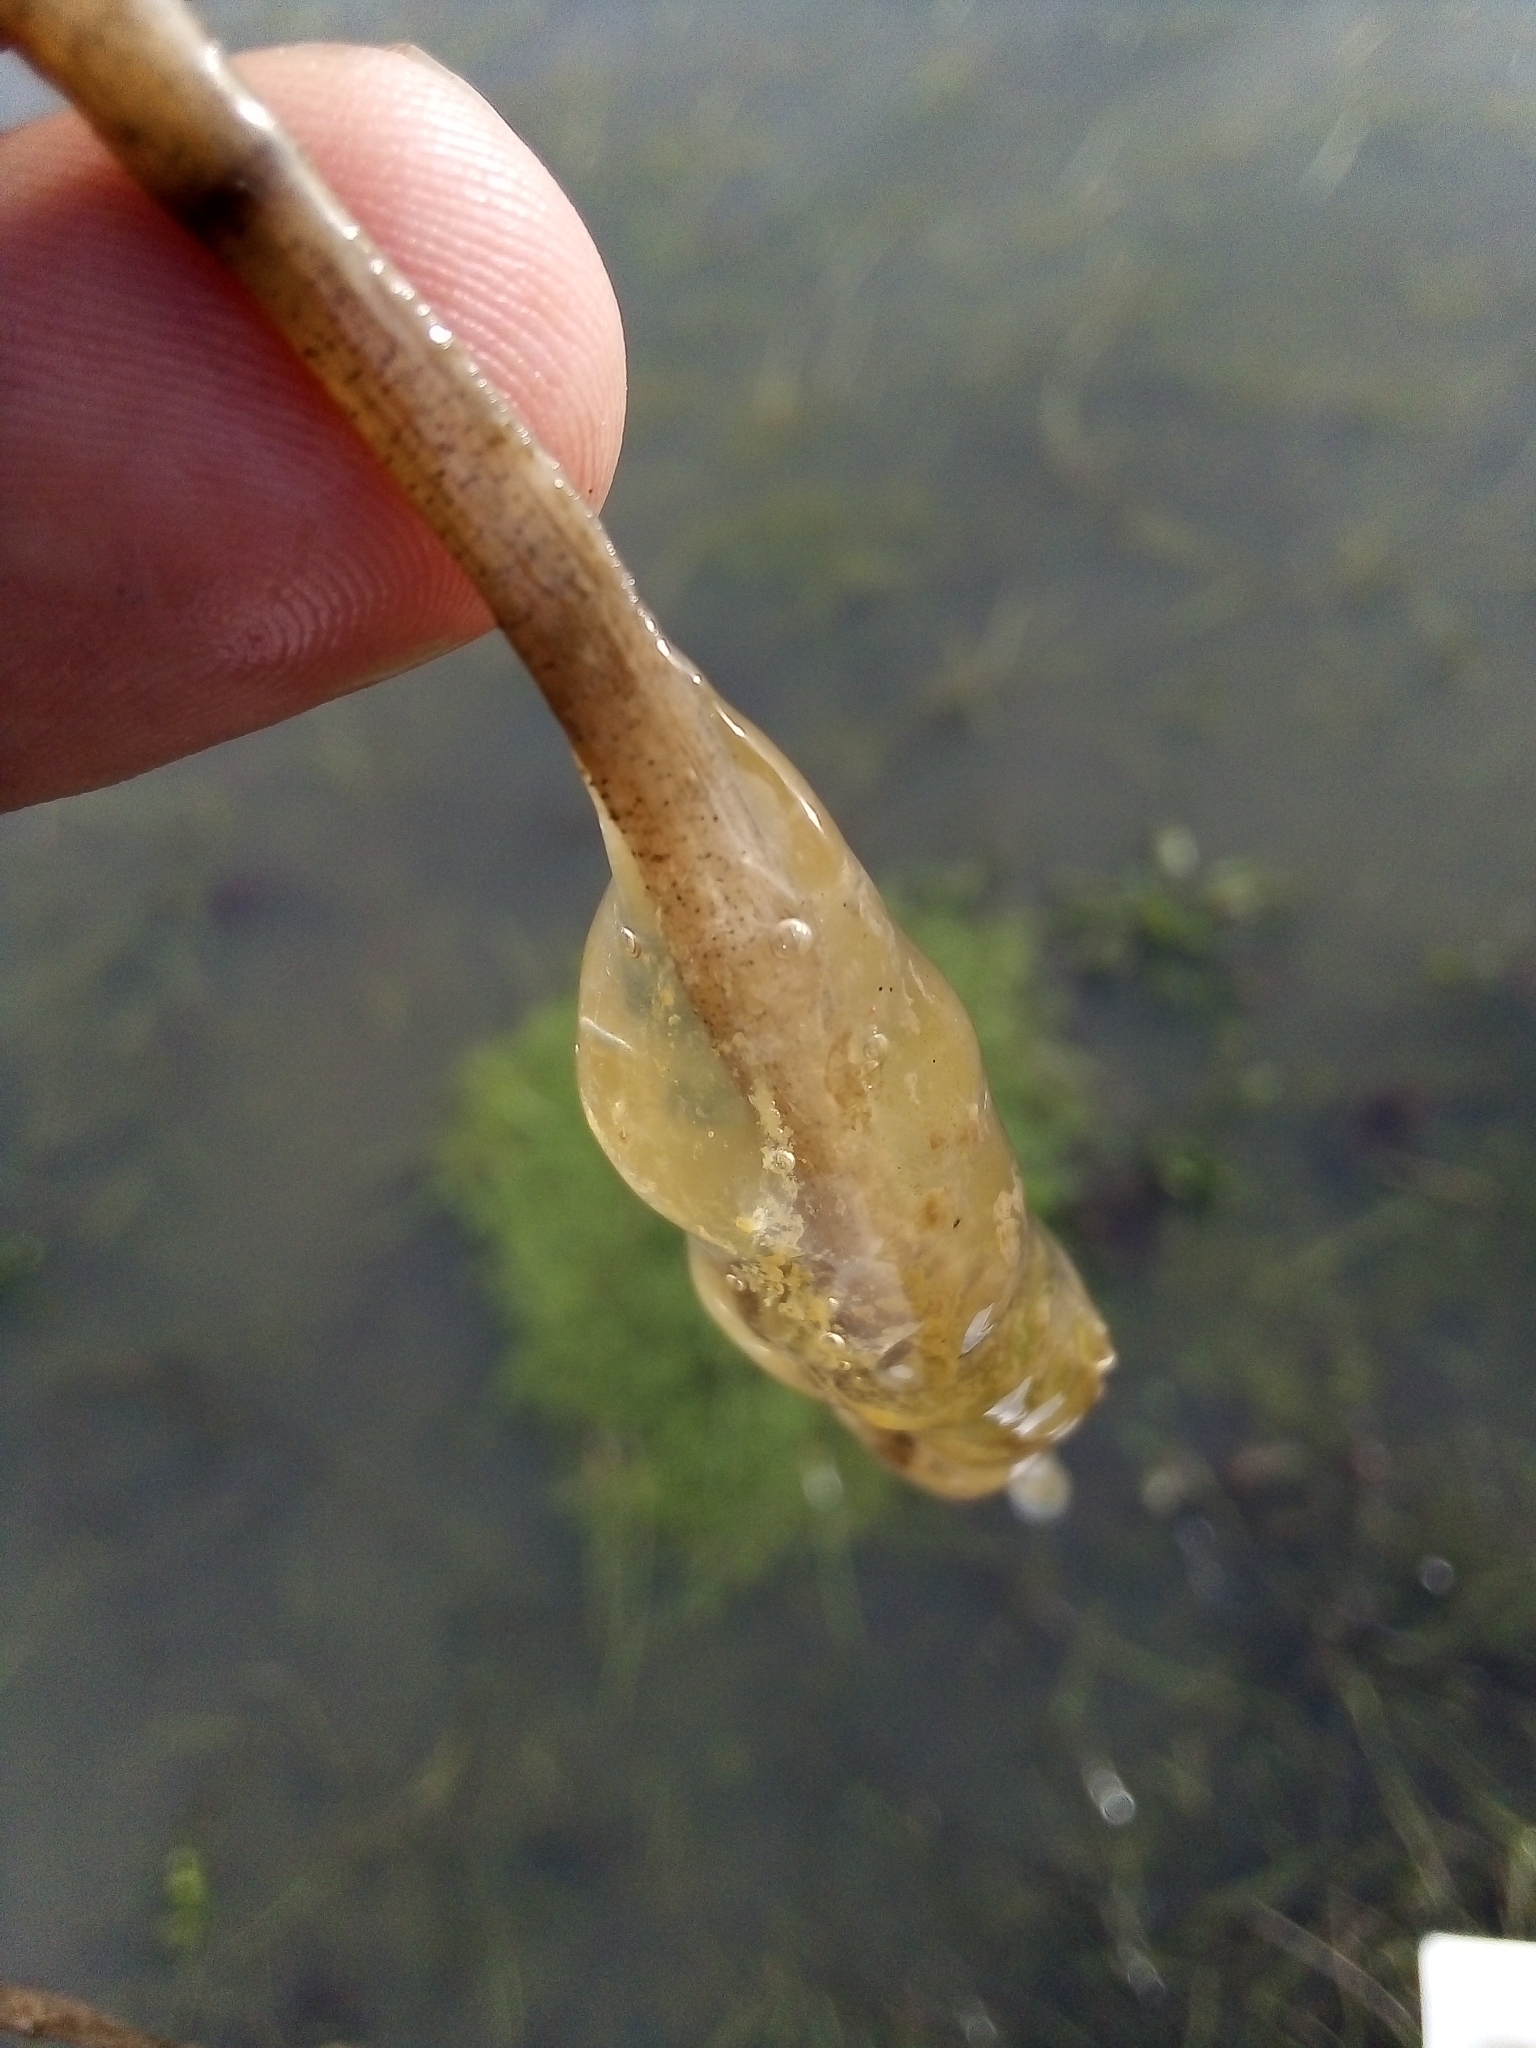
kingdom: Animalia
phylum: Chordata
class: Amphibia
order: Anura
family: Pelodytidae
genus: Pelodytes
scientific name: Pelodytes atlanticus
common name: Lusitanian parsley frog
